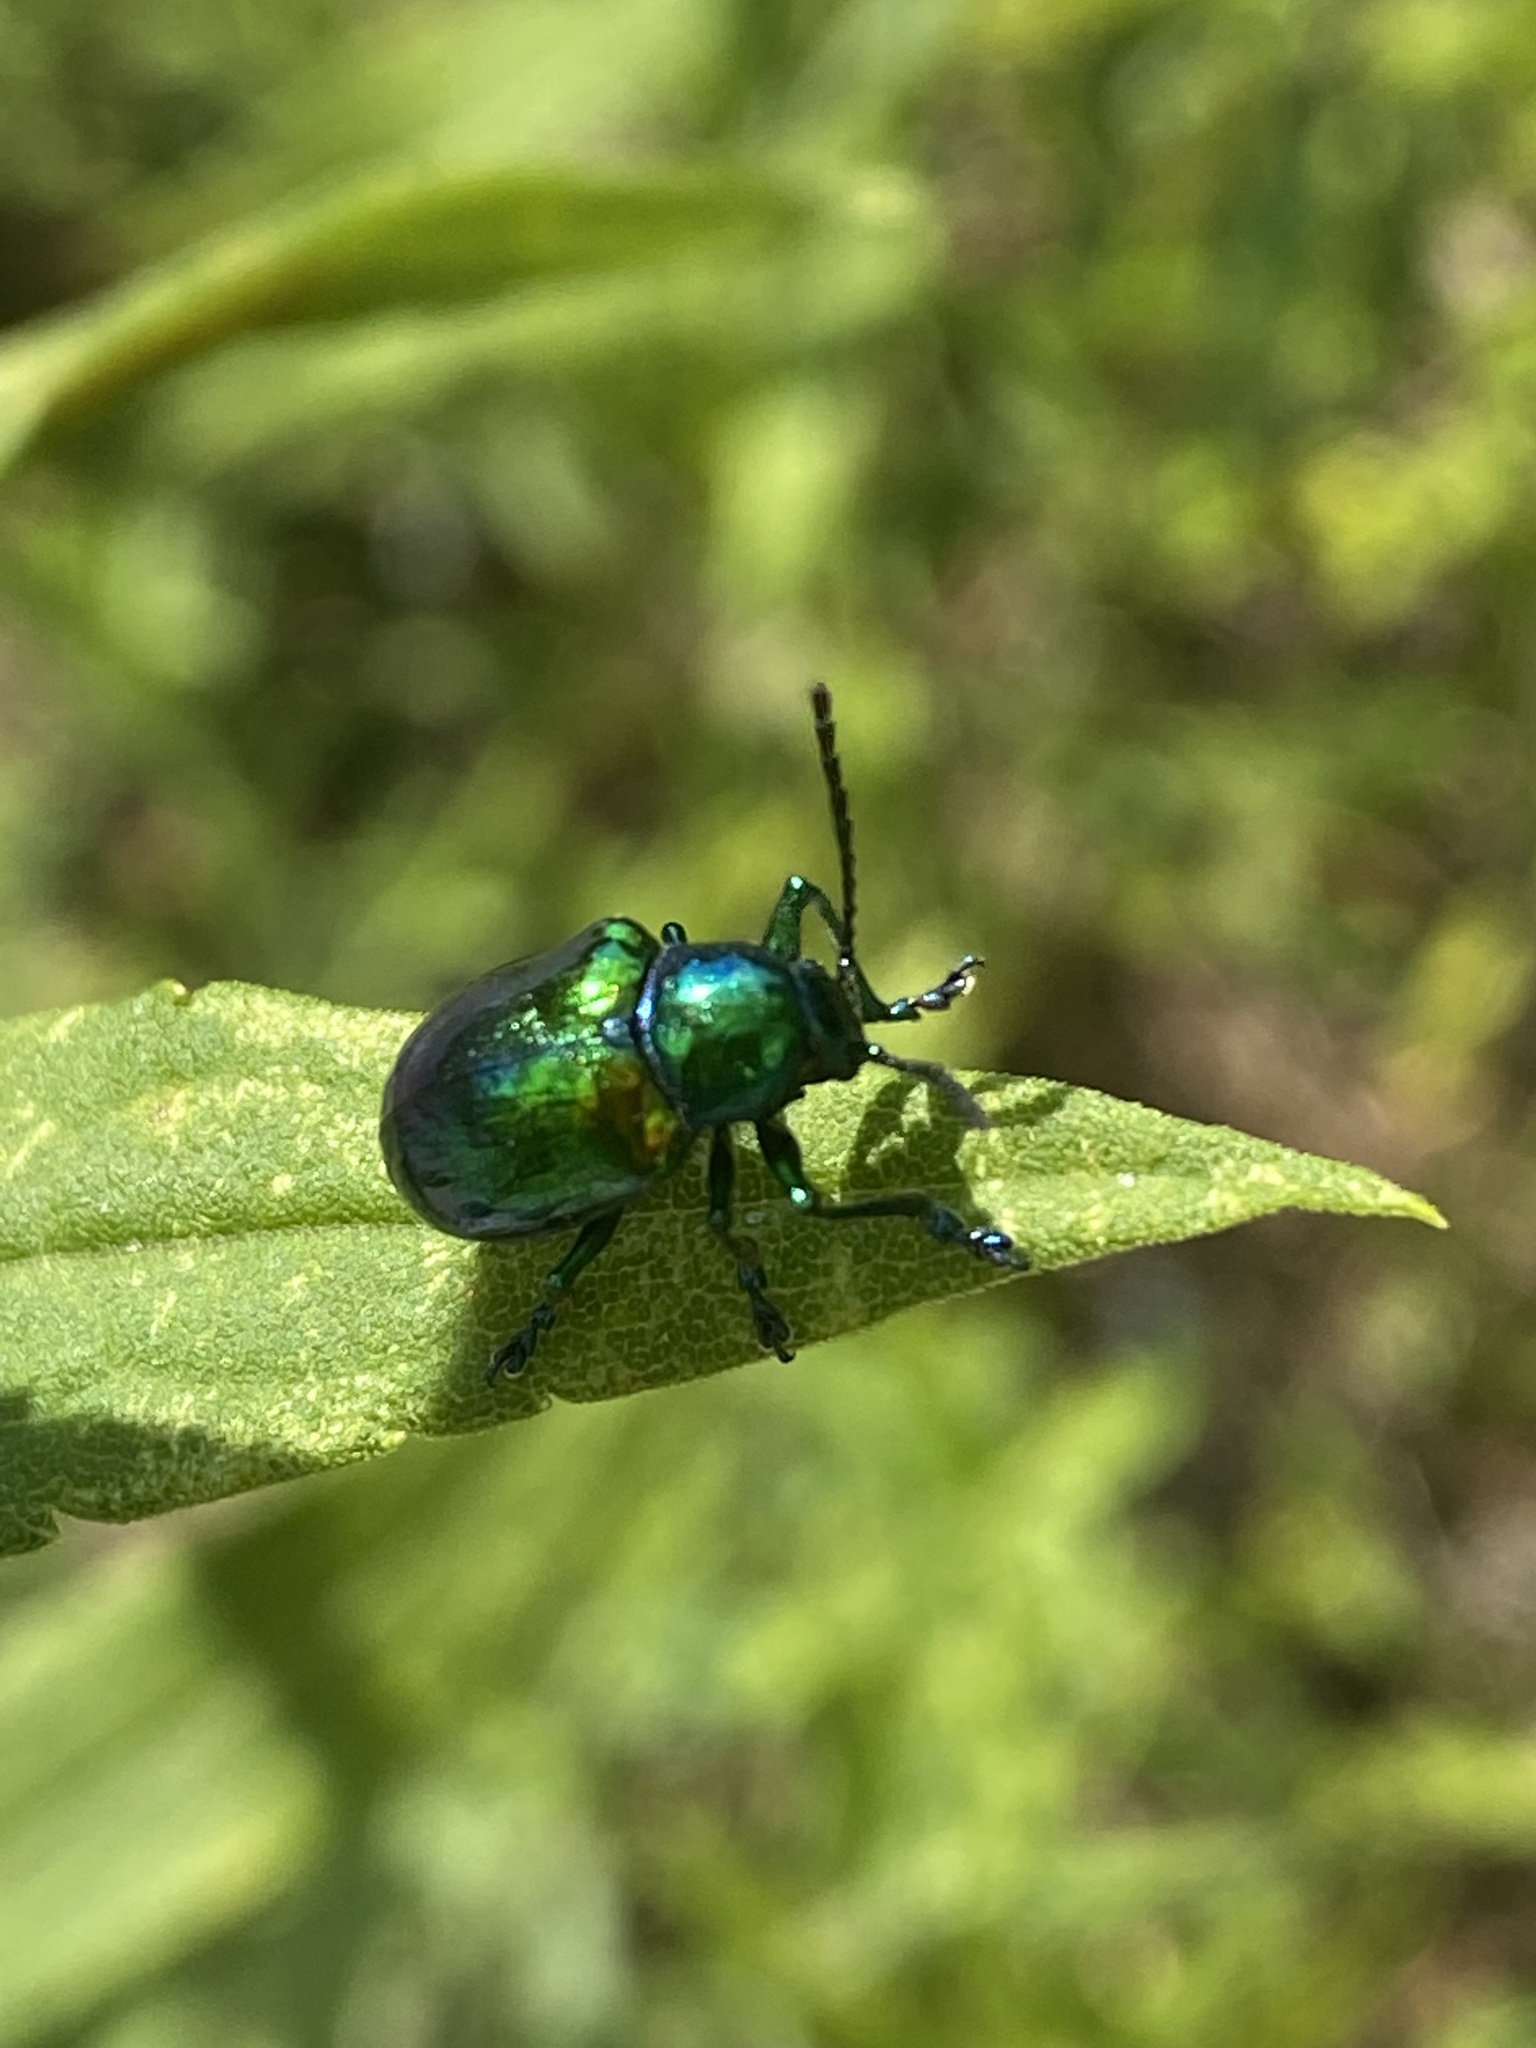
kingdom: Animalia
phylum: Arthropoda
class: Insecta
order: Coleoptera
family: Chrysomelidae
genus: Chrysochus
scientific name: Chrysochus auratus
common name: Dogbane leaf beetle
